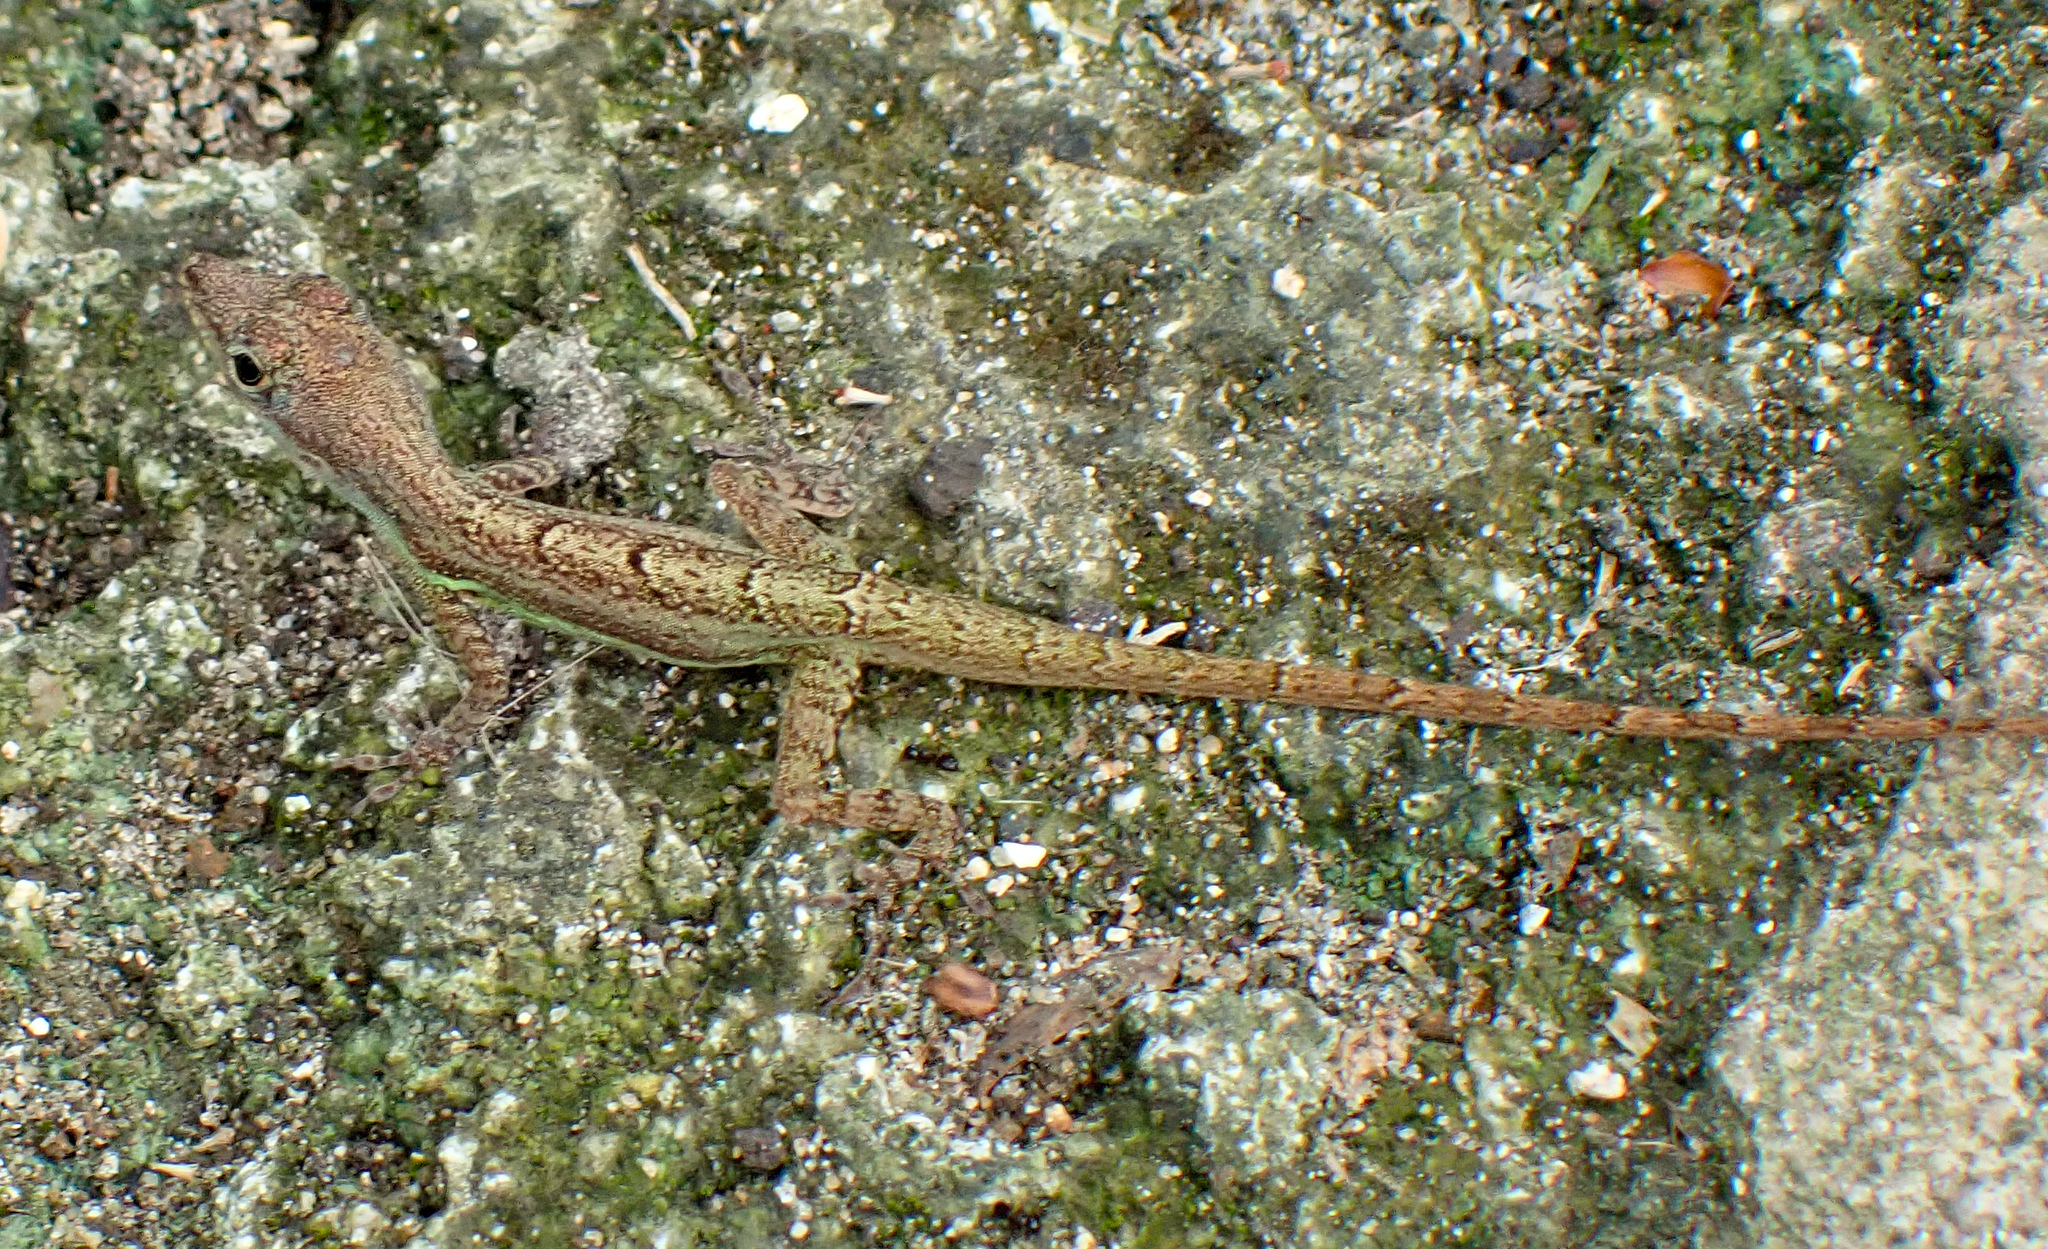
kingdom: Animalia
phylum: Chordata
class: Squamata
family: Dactyloidae
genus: Anolis
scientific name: Anolis extremus
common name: Barbados anole
